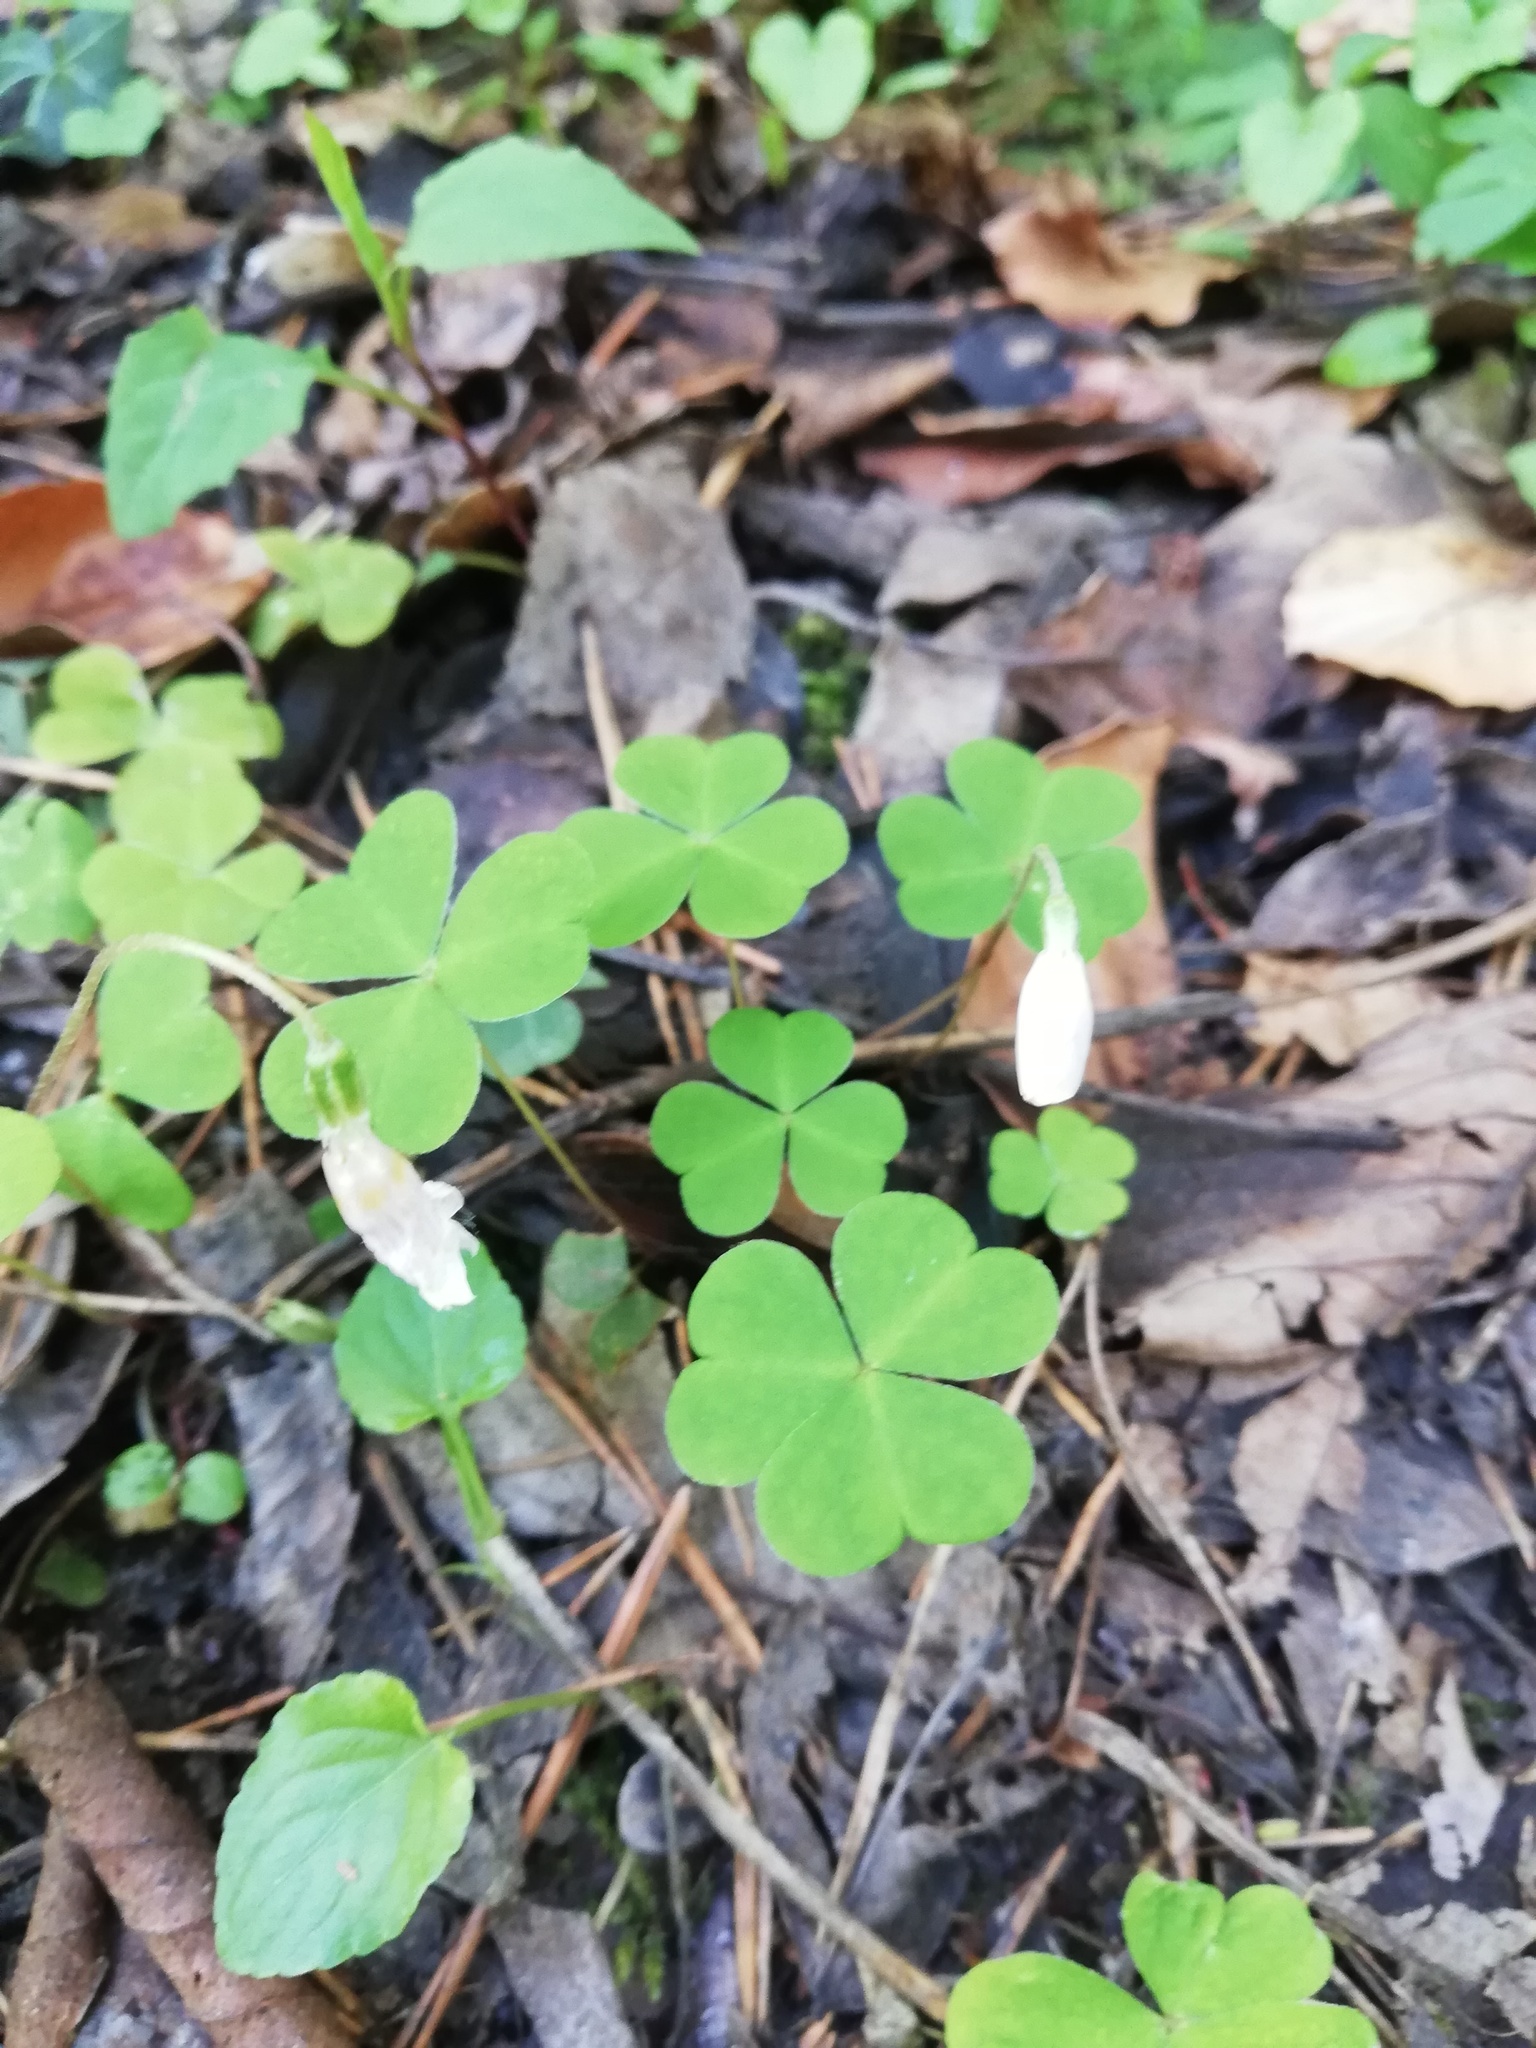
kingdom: Plantae
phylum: Tracheophyta
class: Magnoliopsida
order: Oxalidales
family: Oxalidaceae
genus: Oxalis
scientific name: Oxalis acetosella
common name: Wood-sorrel
